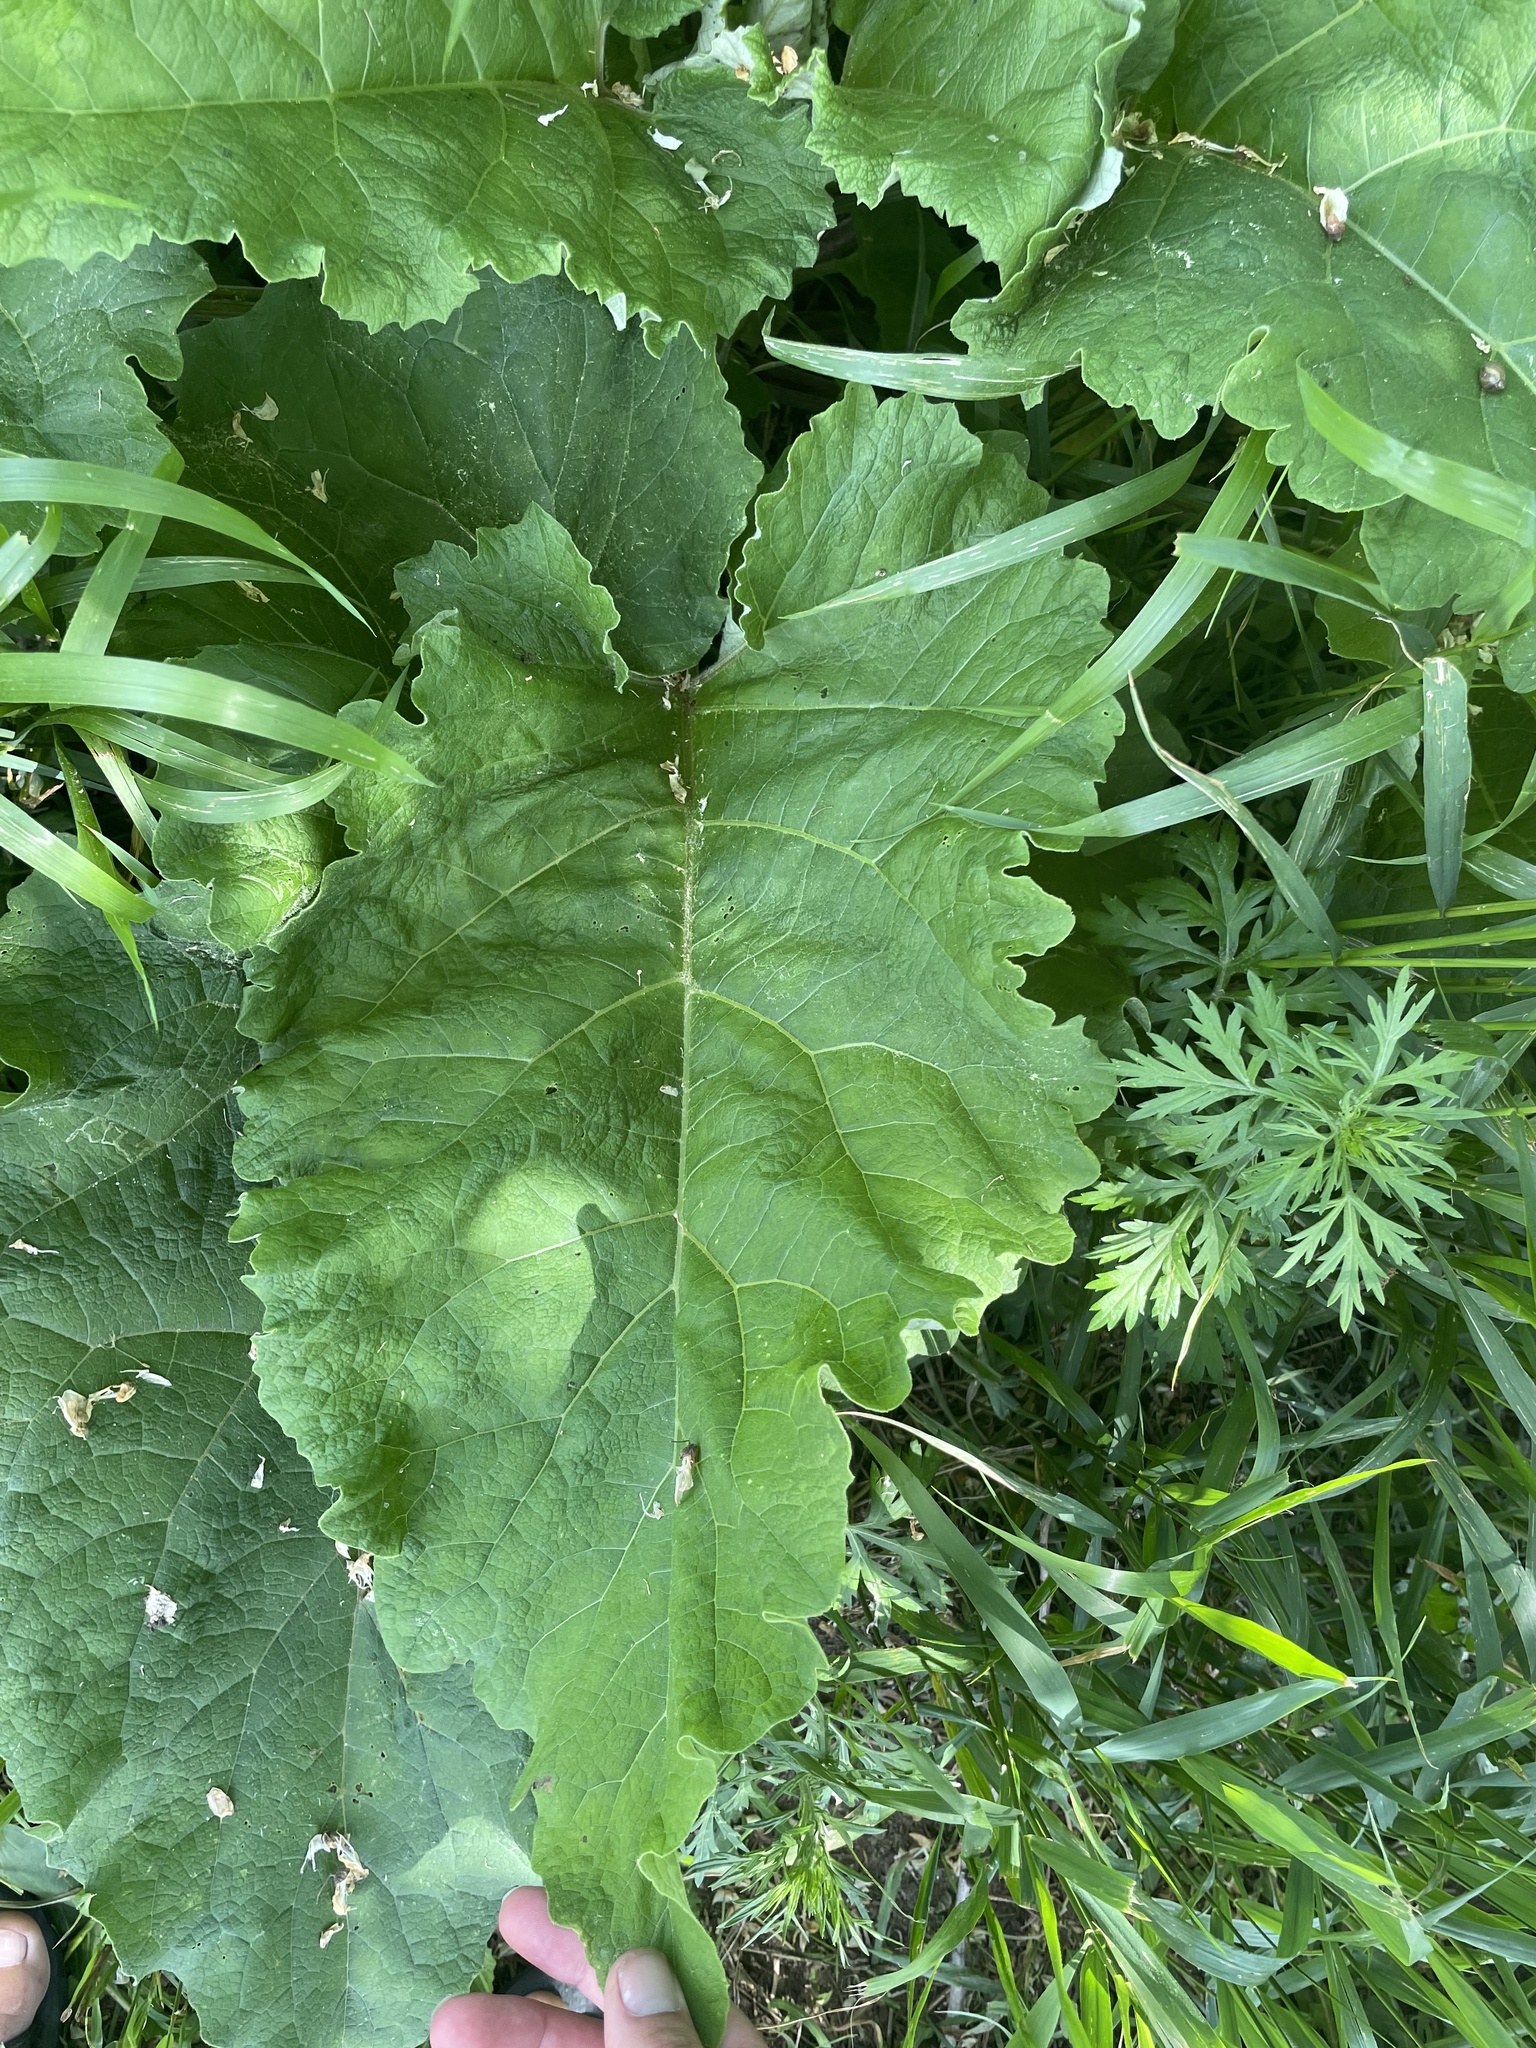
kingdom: Plantae
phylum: Tracheophyta
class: Magnoliopsida
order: Asterales
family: Asteraceae
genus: Arctium
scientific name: Arctium
